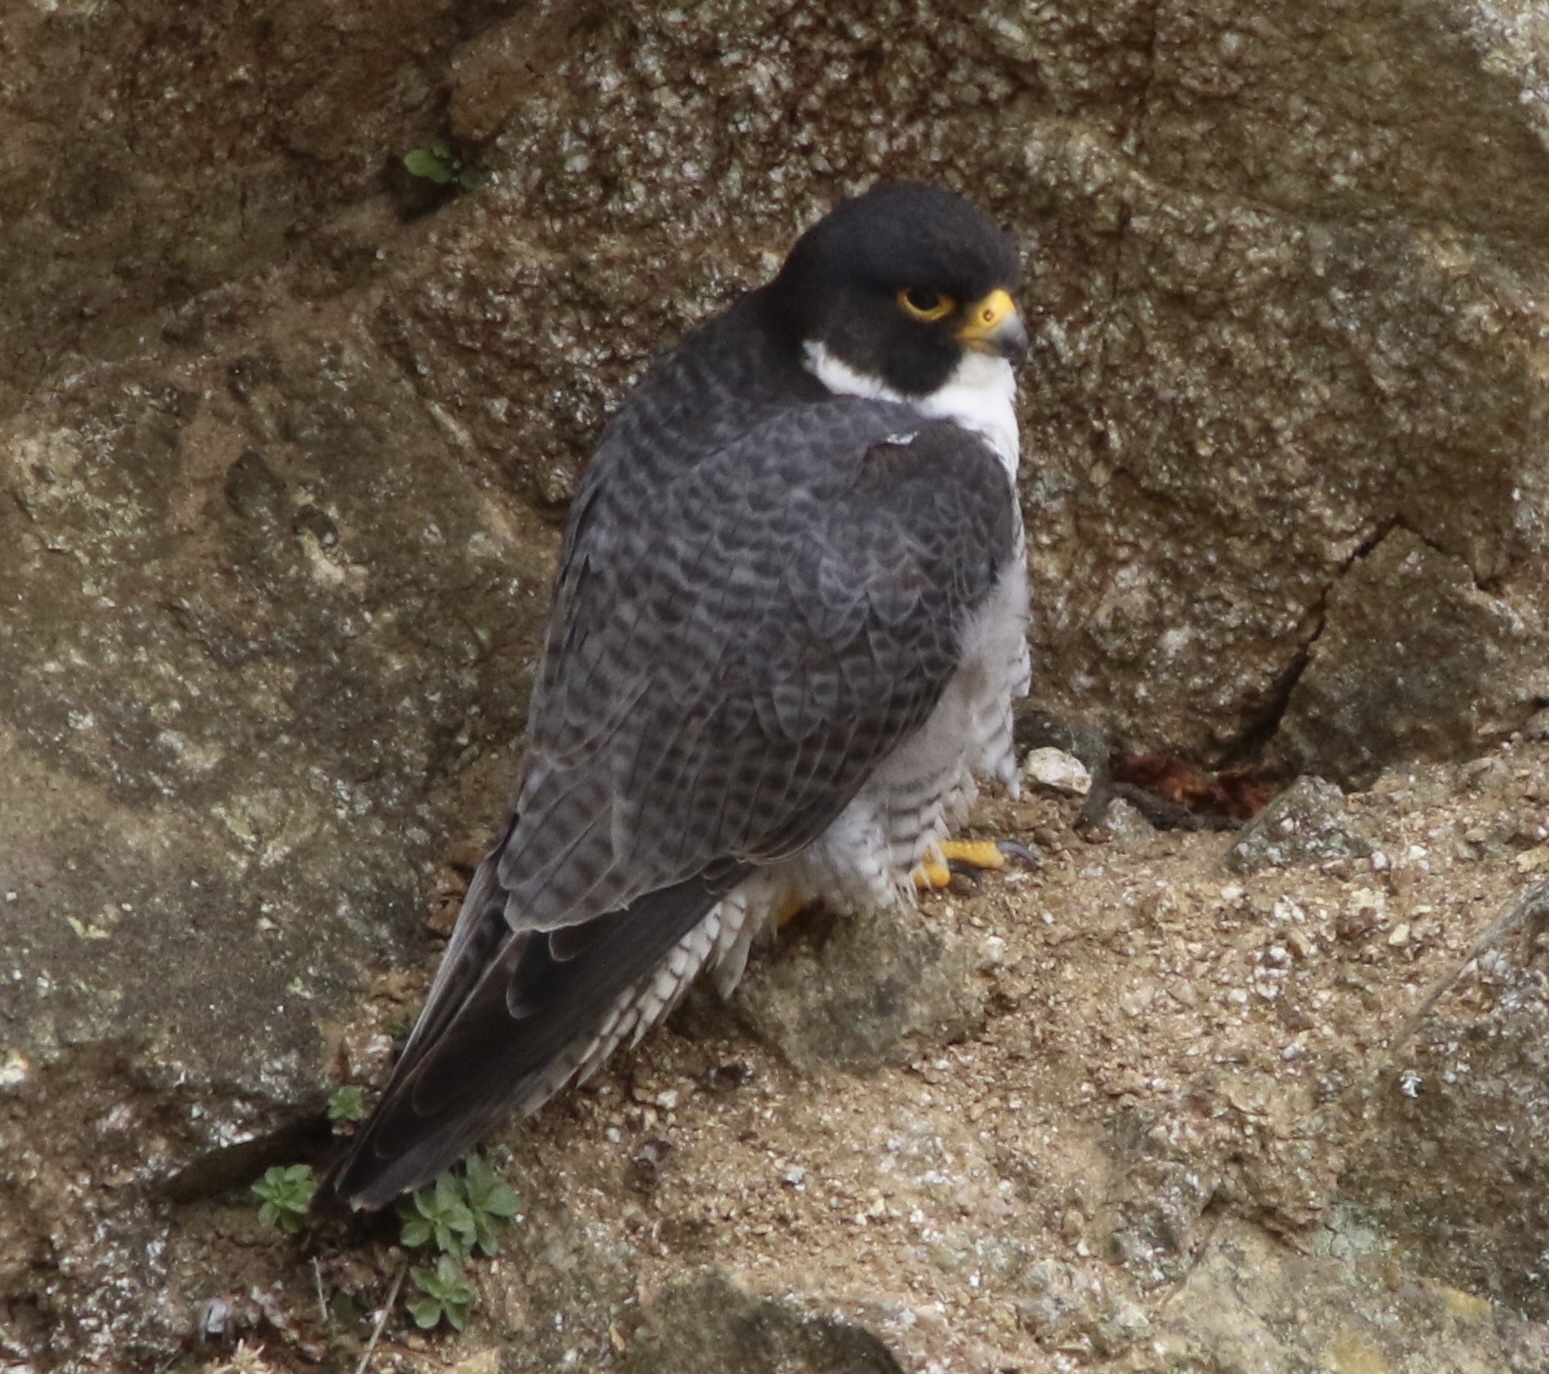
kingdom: Animalia
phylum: Chordata
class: Aves
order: Falconiformes
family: Falconidae
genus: Falco
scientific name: Falco peregrinus
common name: Peregrine falcon
